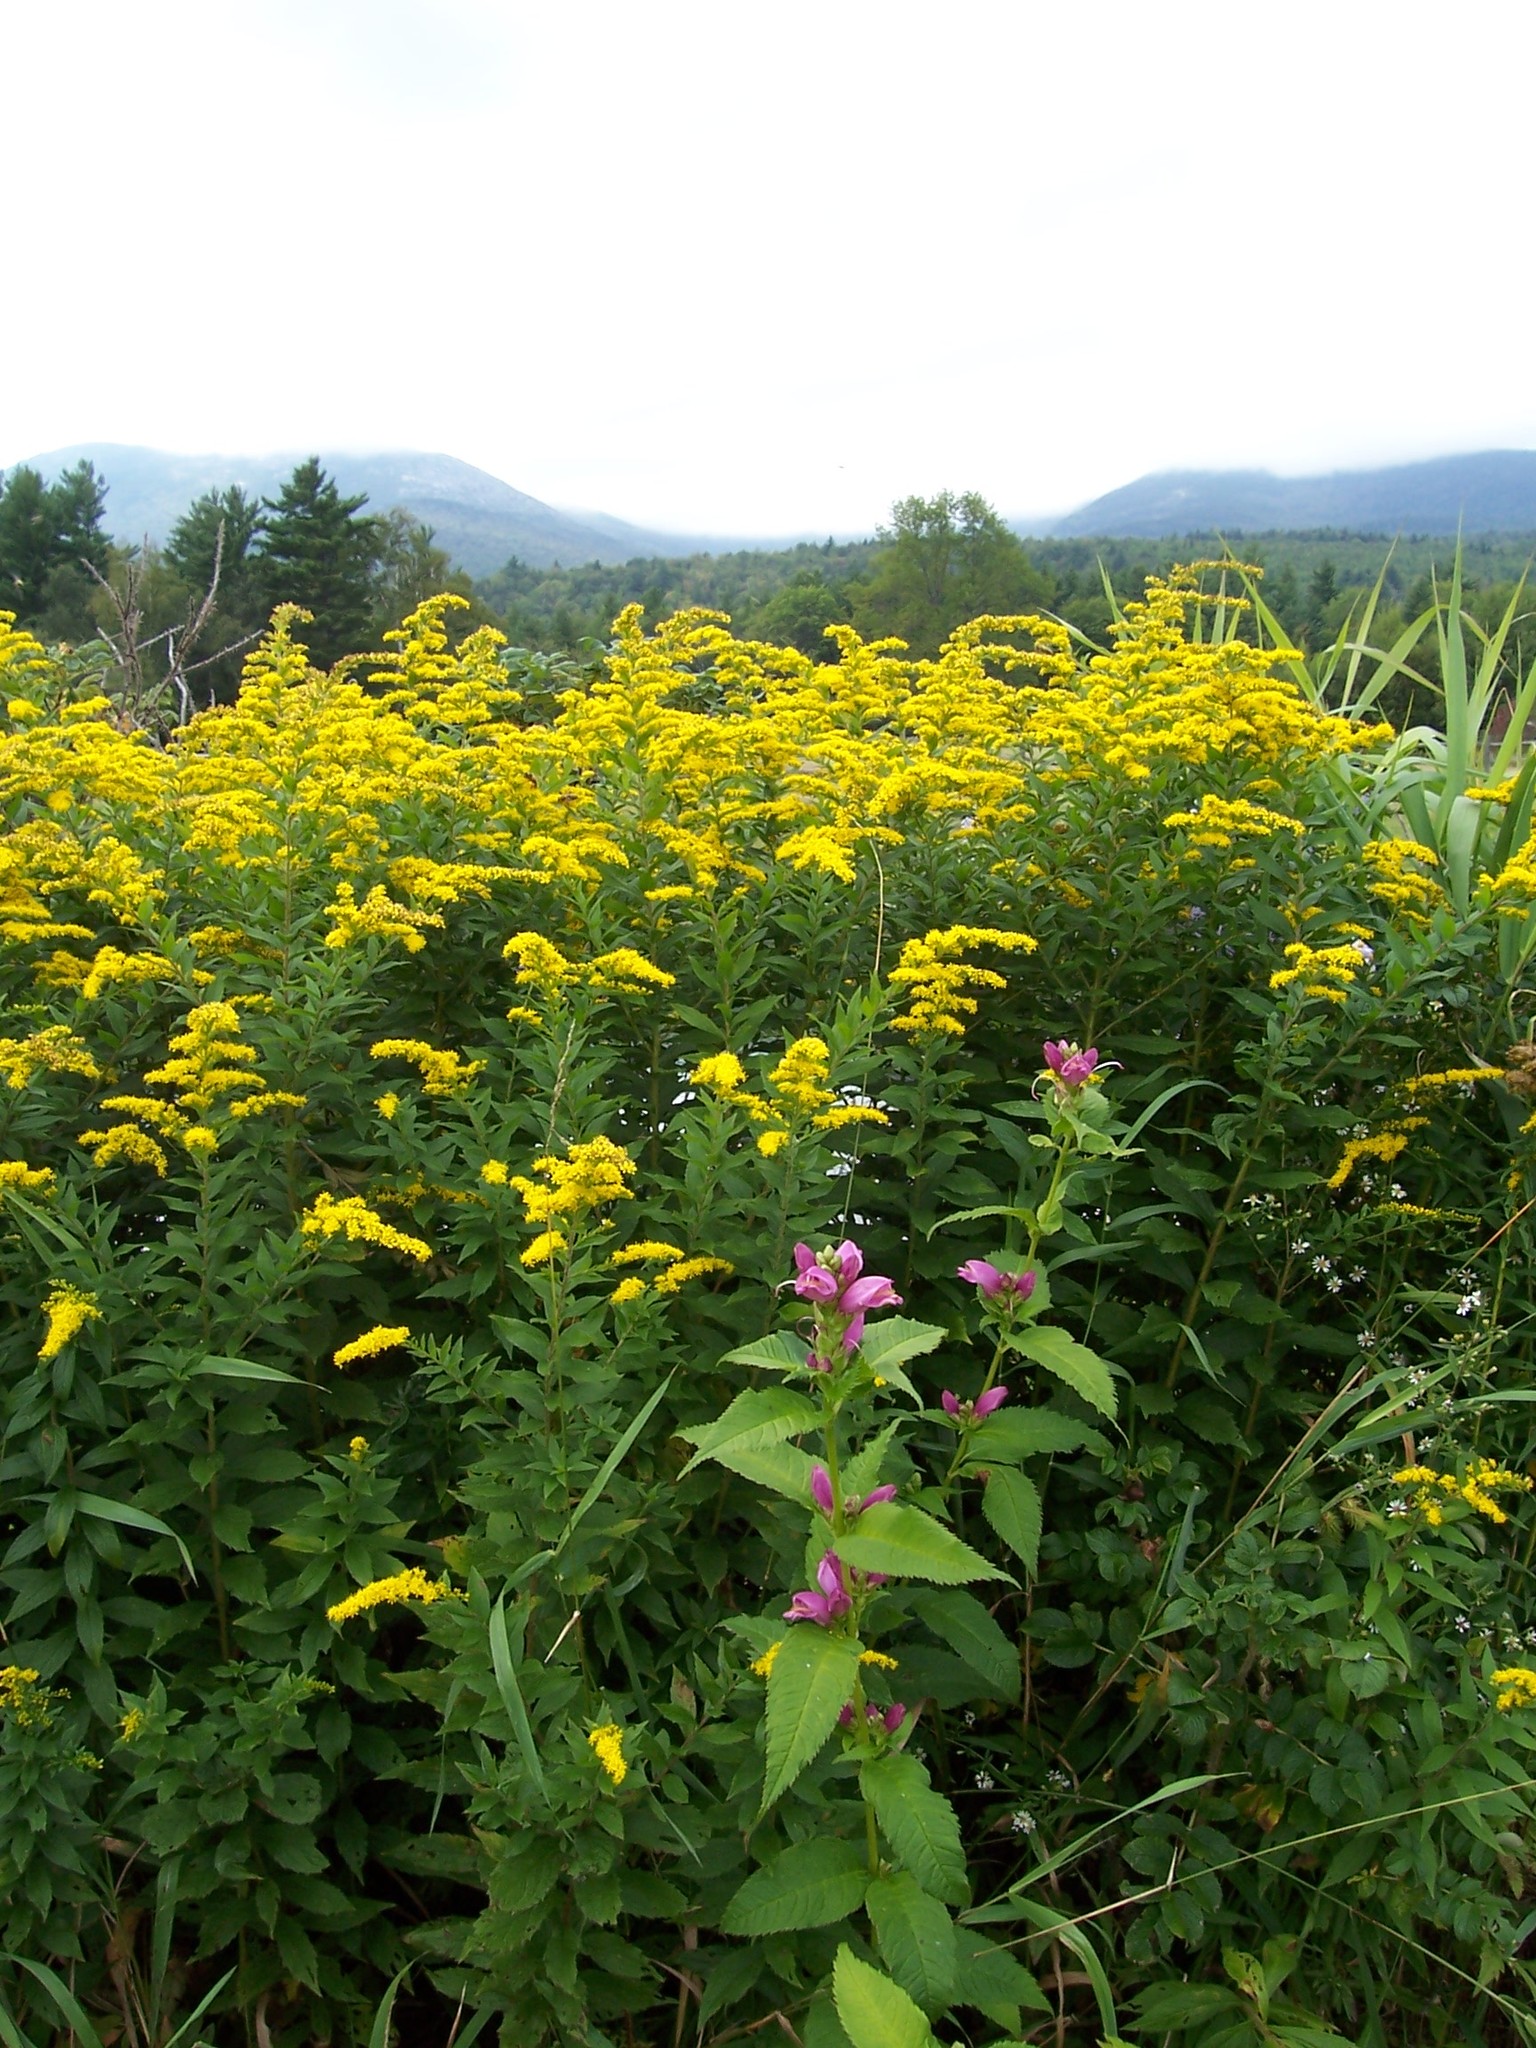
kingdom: Plantae
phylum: Tracheophyta
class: Magnoliopsida
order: Lamiales
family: Plantaginaceae
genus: Chelone
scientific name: Chelone lyonii
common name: Pink turtlehead
